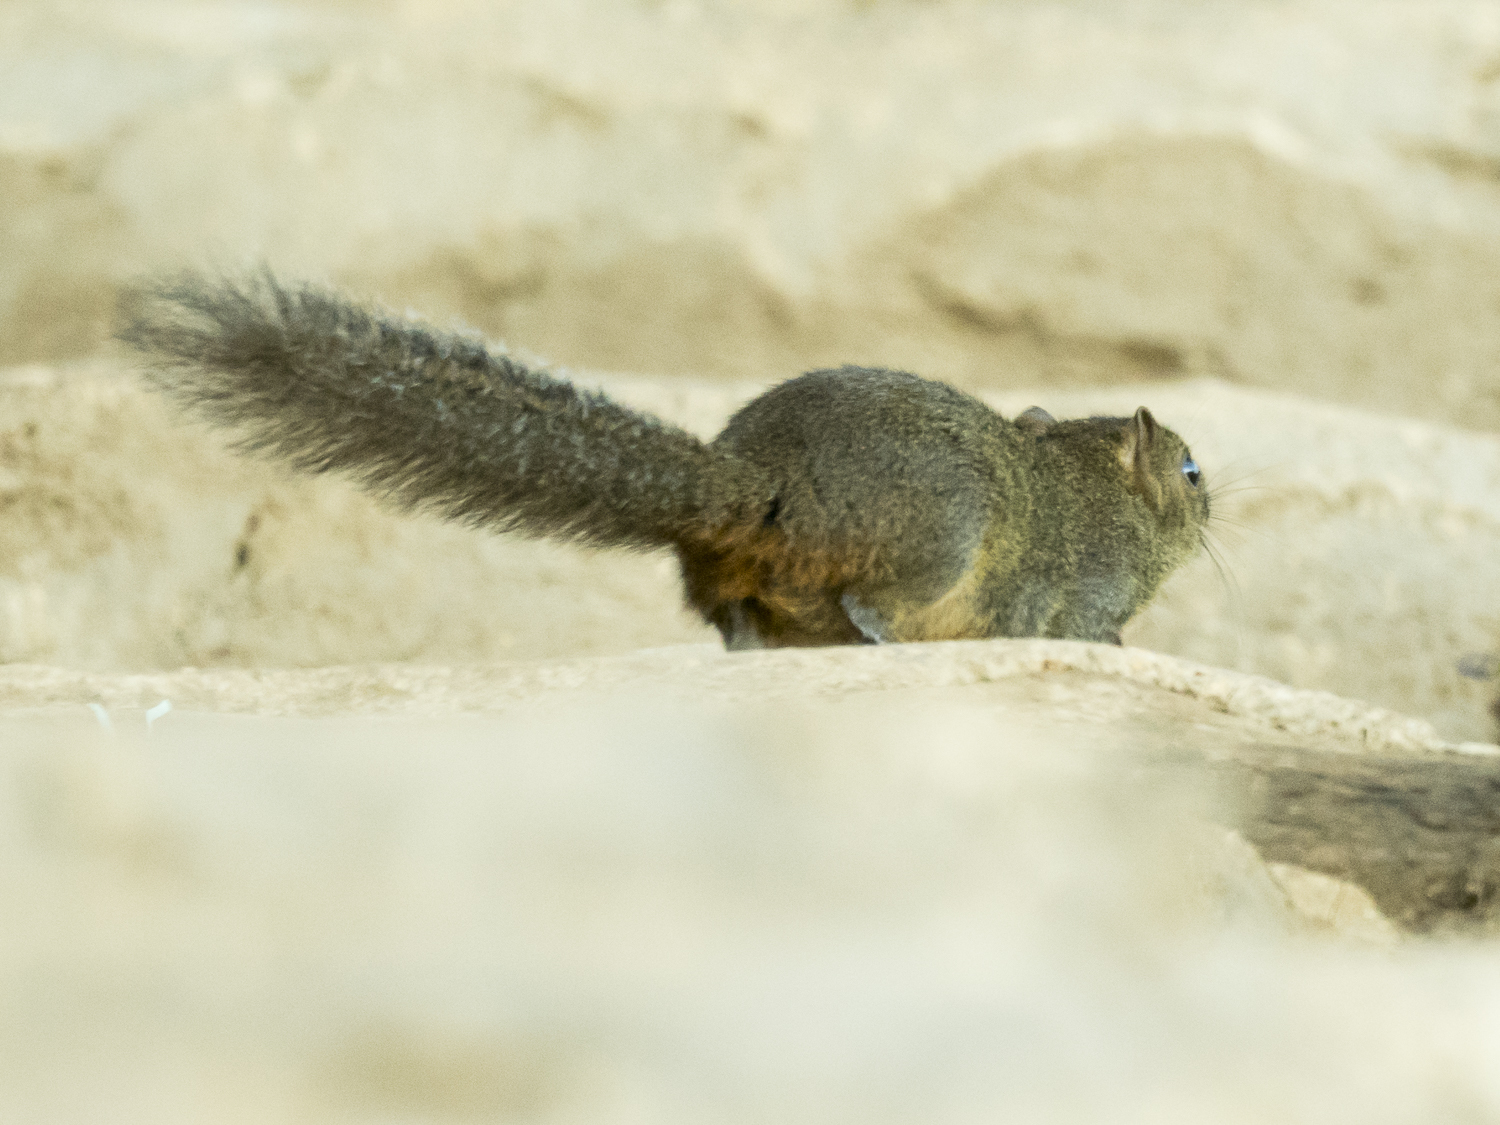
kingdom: Animalia
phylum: Chordata
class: Mammalia
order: Rodentia
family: Sciuridae
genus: Callosciurus
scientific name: Callosciurus pygerythrus
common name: Irrawaddy squirrel
